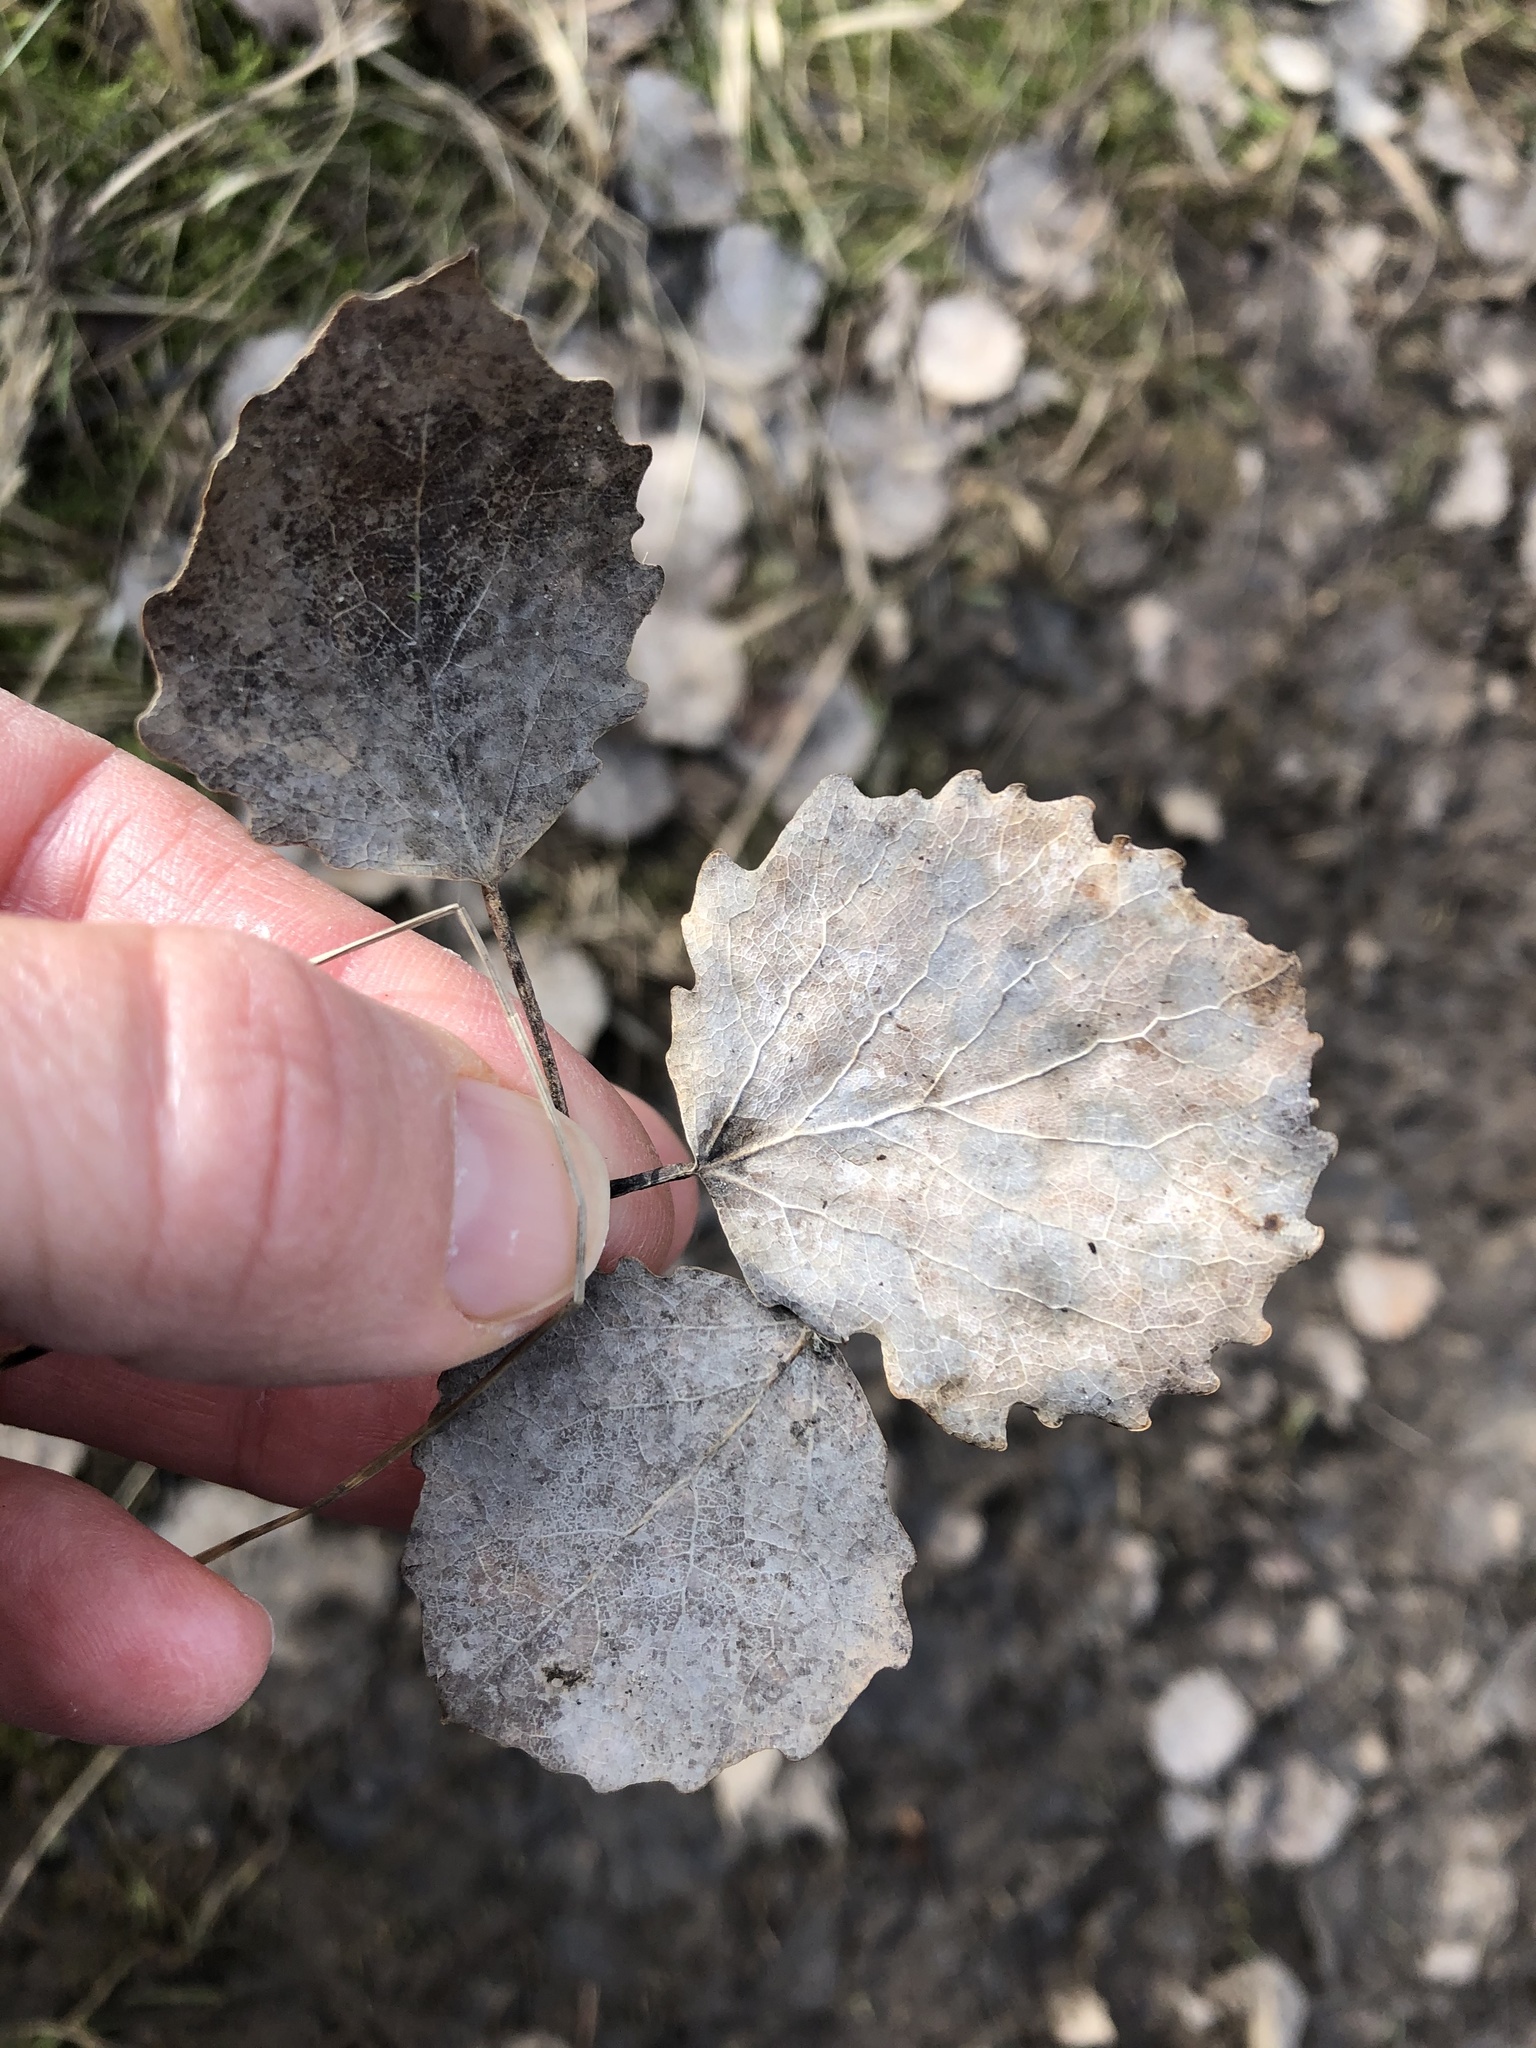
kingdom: Plantae
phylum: Tracheophyta
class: Magnoliopsida
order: Malpighiales
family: Salicaceae
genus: Populus
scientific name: Populus tremula
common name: European aspen
